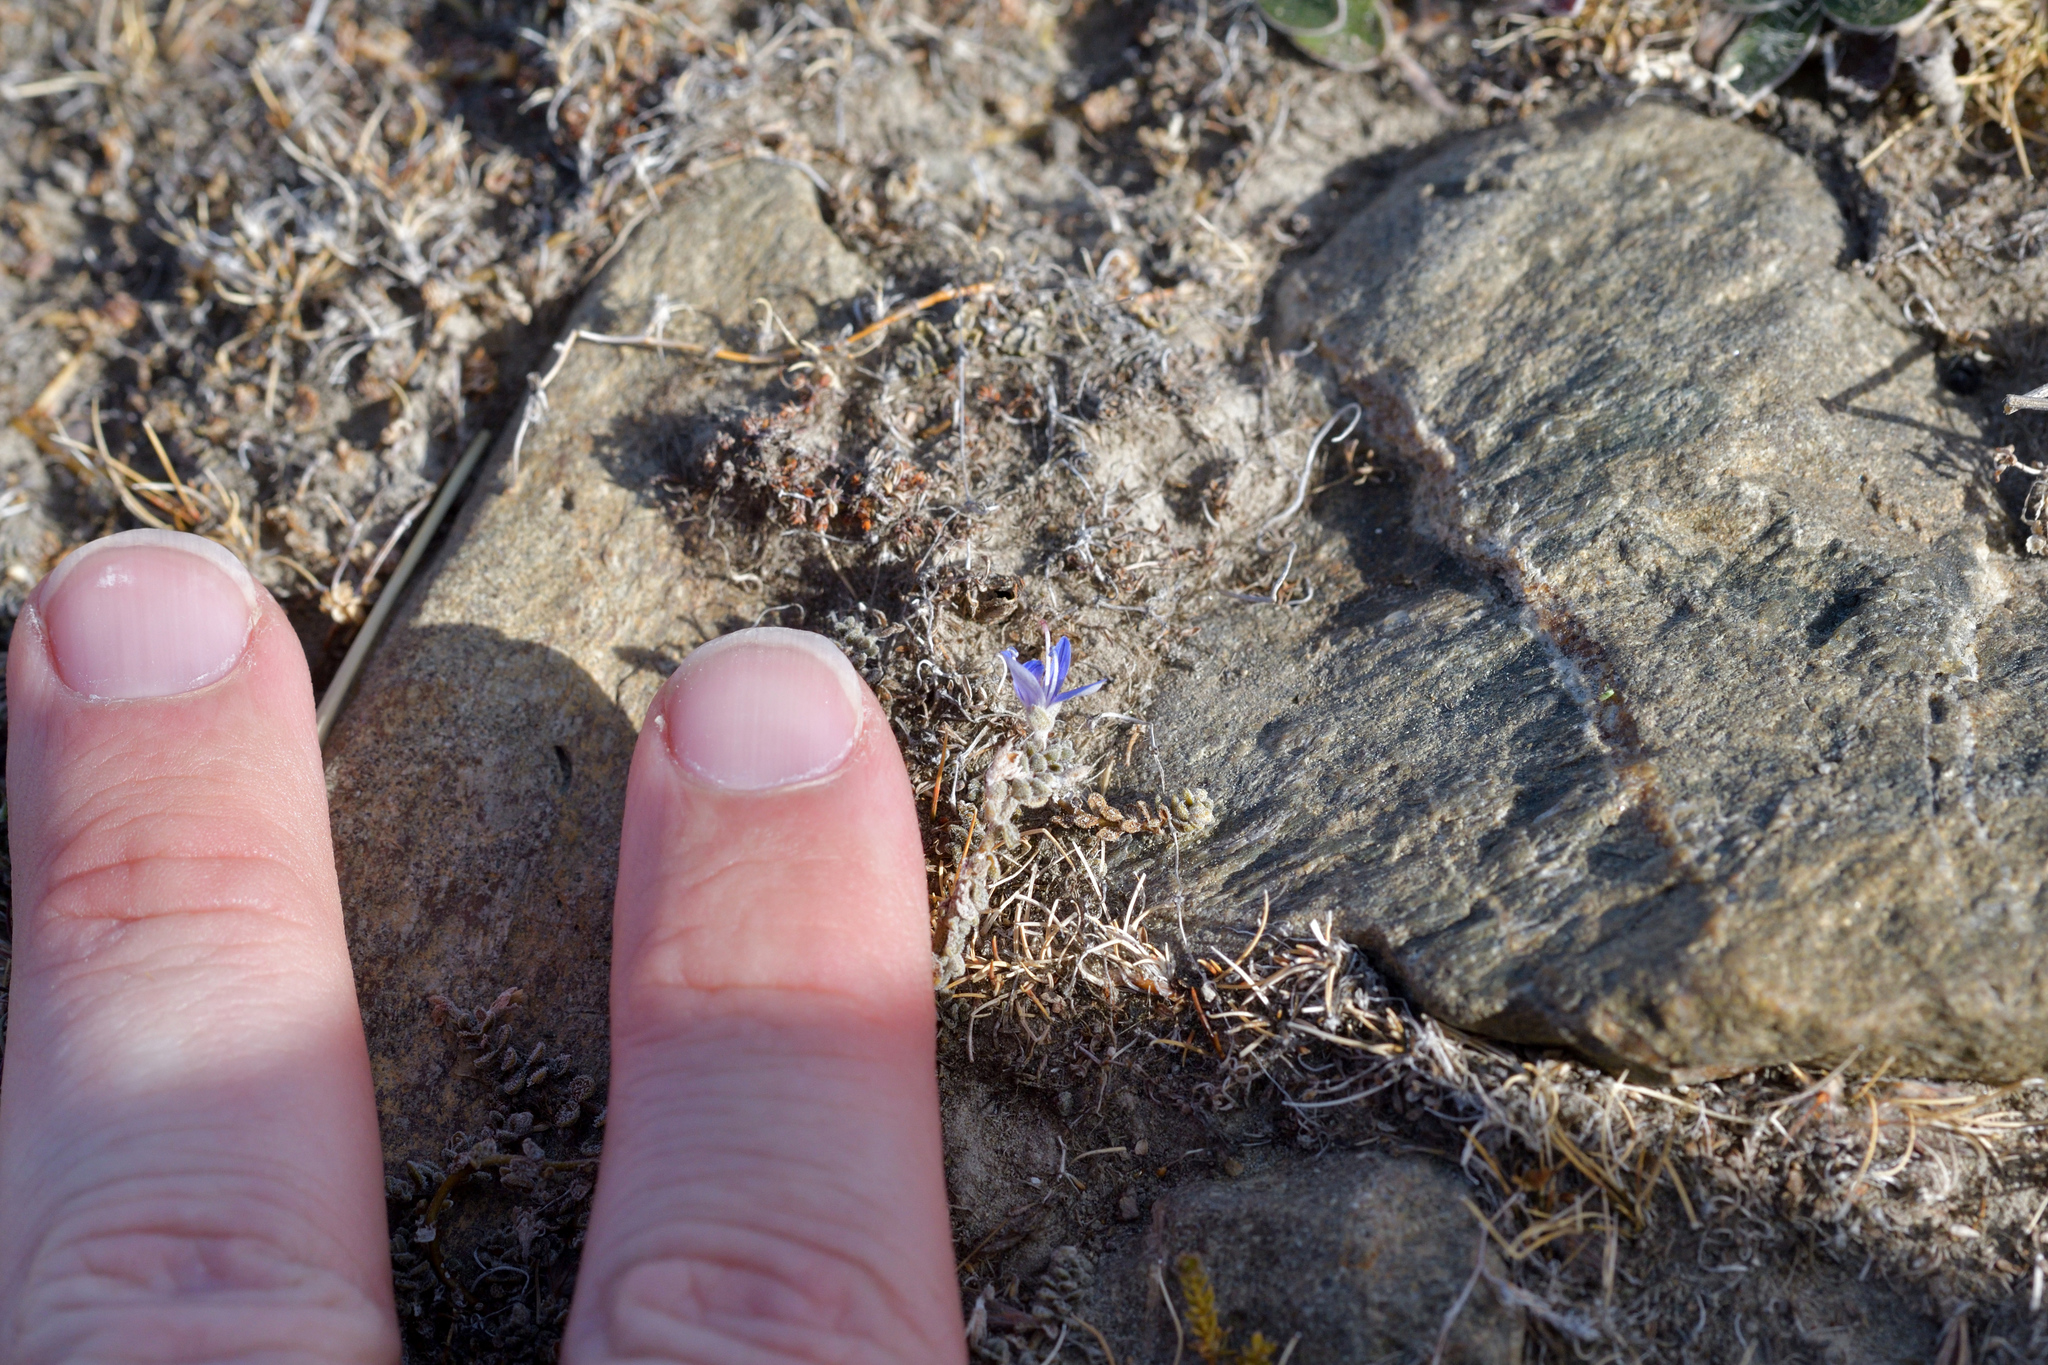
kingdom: Plantae
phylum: Tracheophyta
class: Magnoliopsida
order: Lamiales
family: Plantaginaceae
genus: Veronica
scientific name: Veronica lilliputiana
